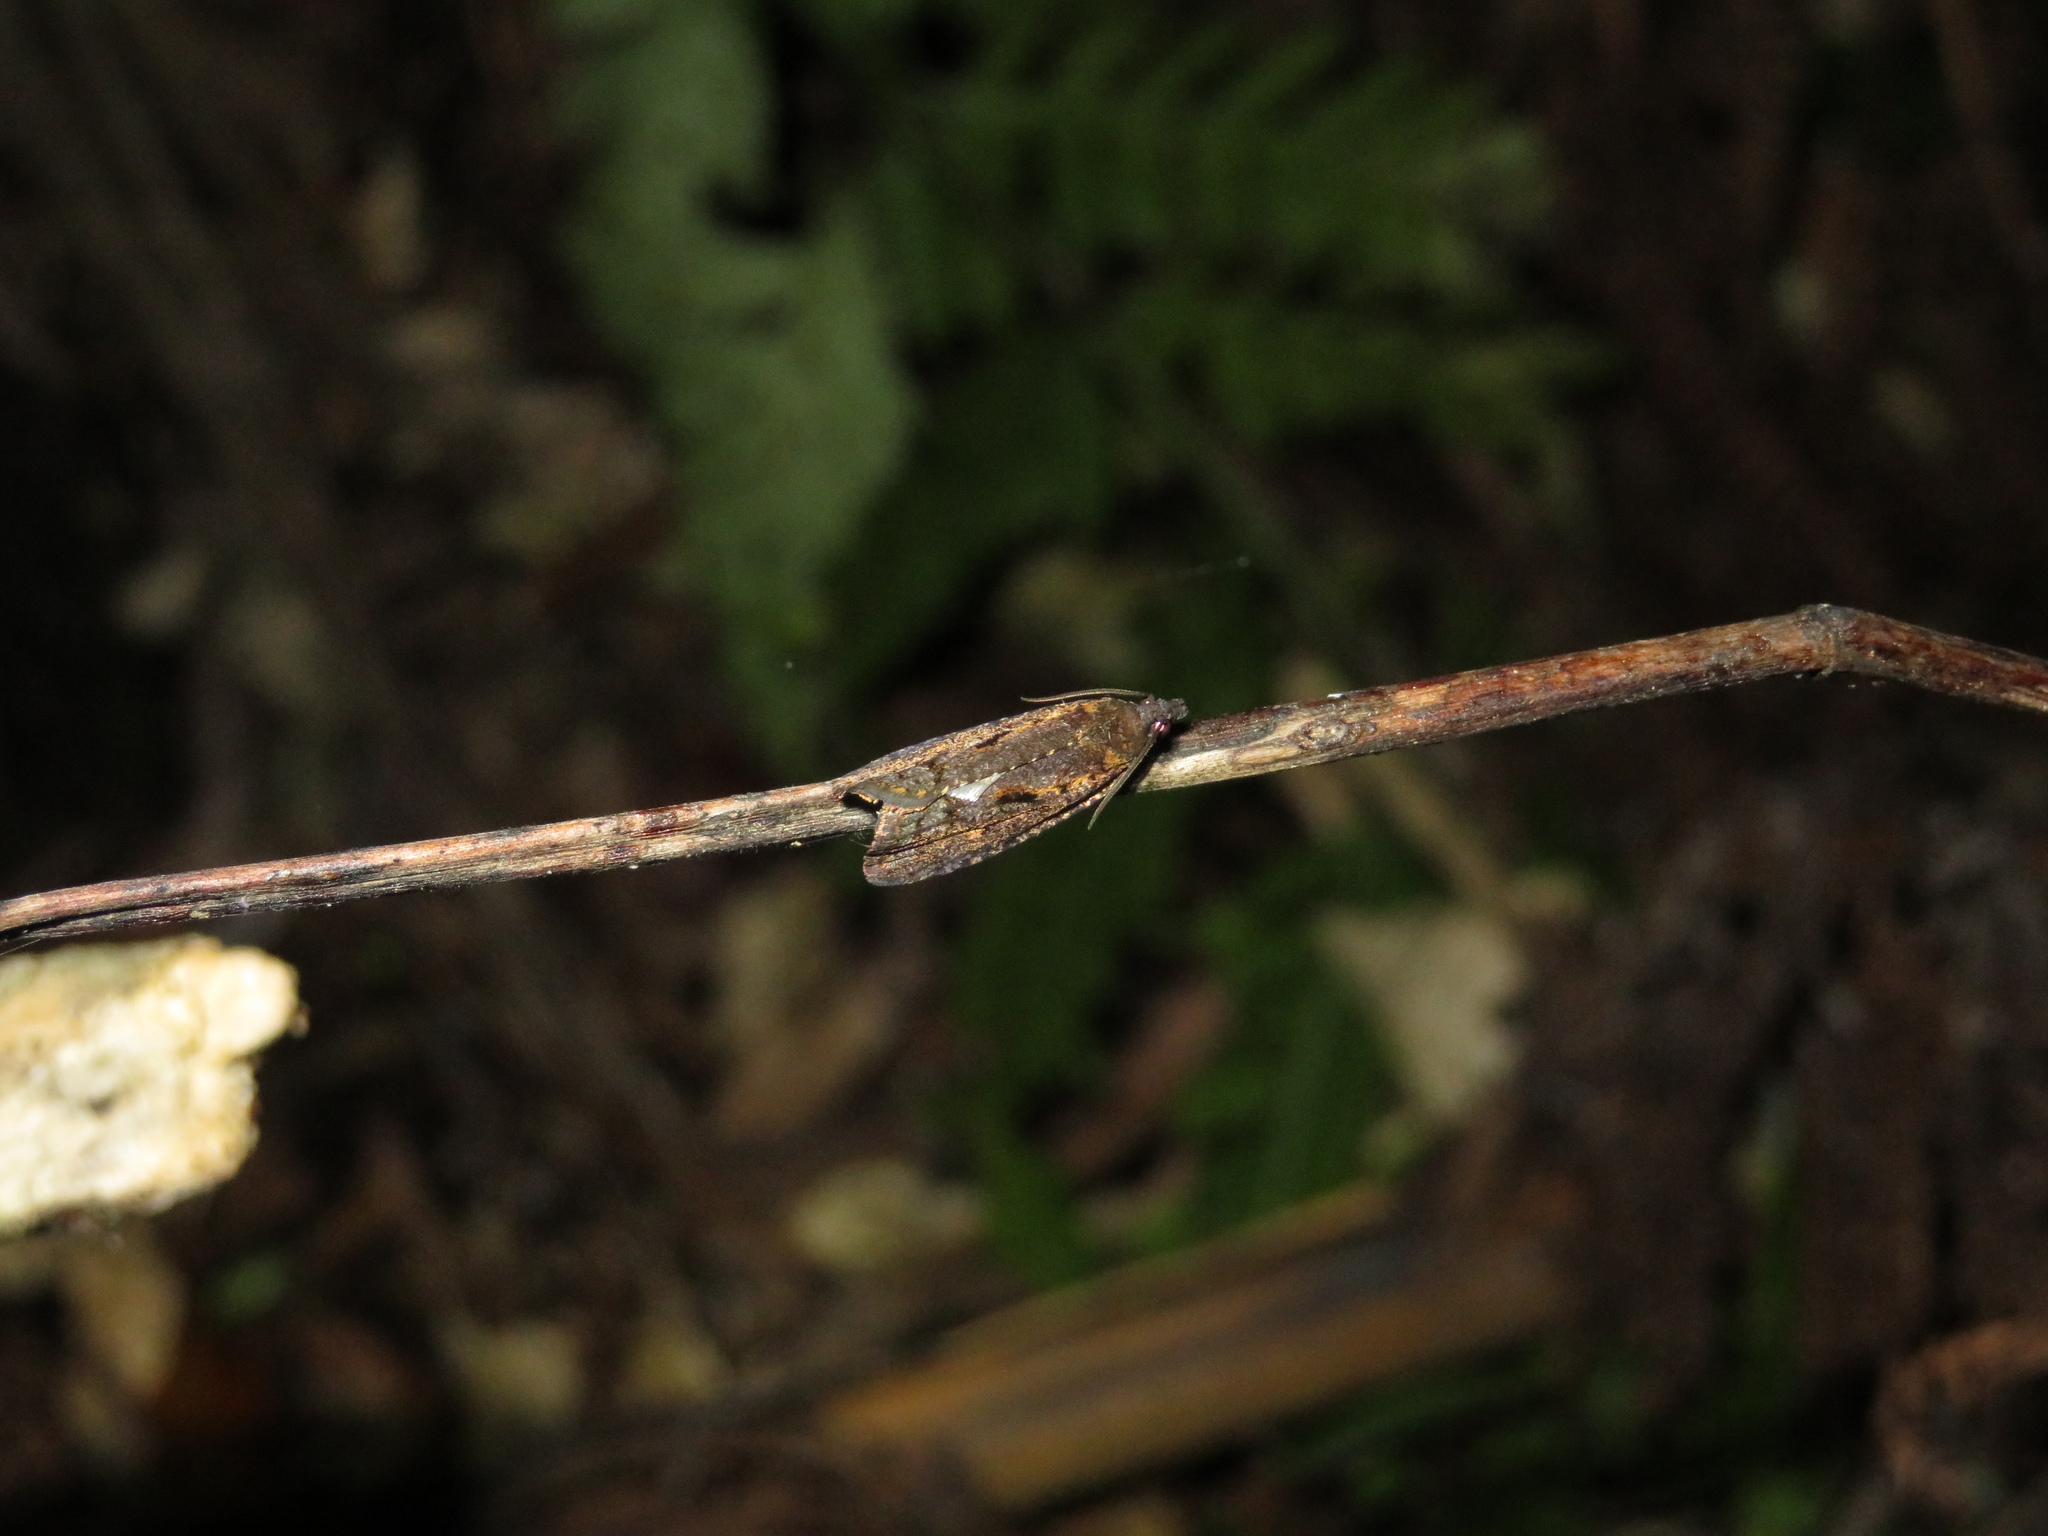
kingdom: Animalia
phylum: Arthropoda
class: Insecta
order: Lepidoptera
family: Tortricidae
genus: Cryptaspasma
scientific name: Cryptaspasma querula
